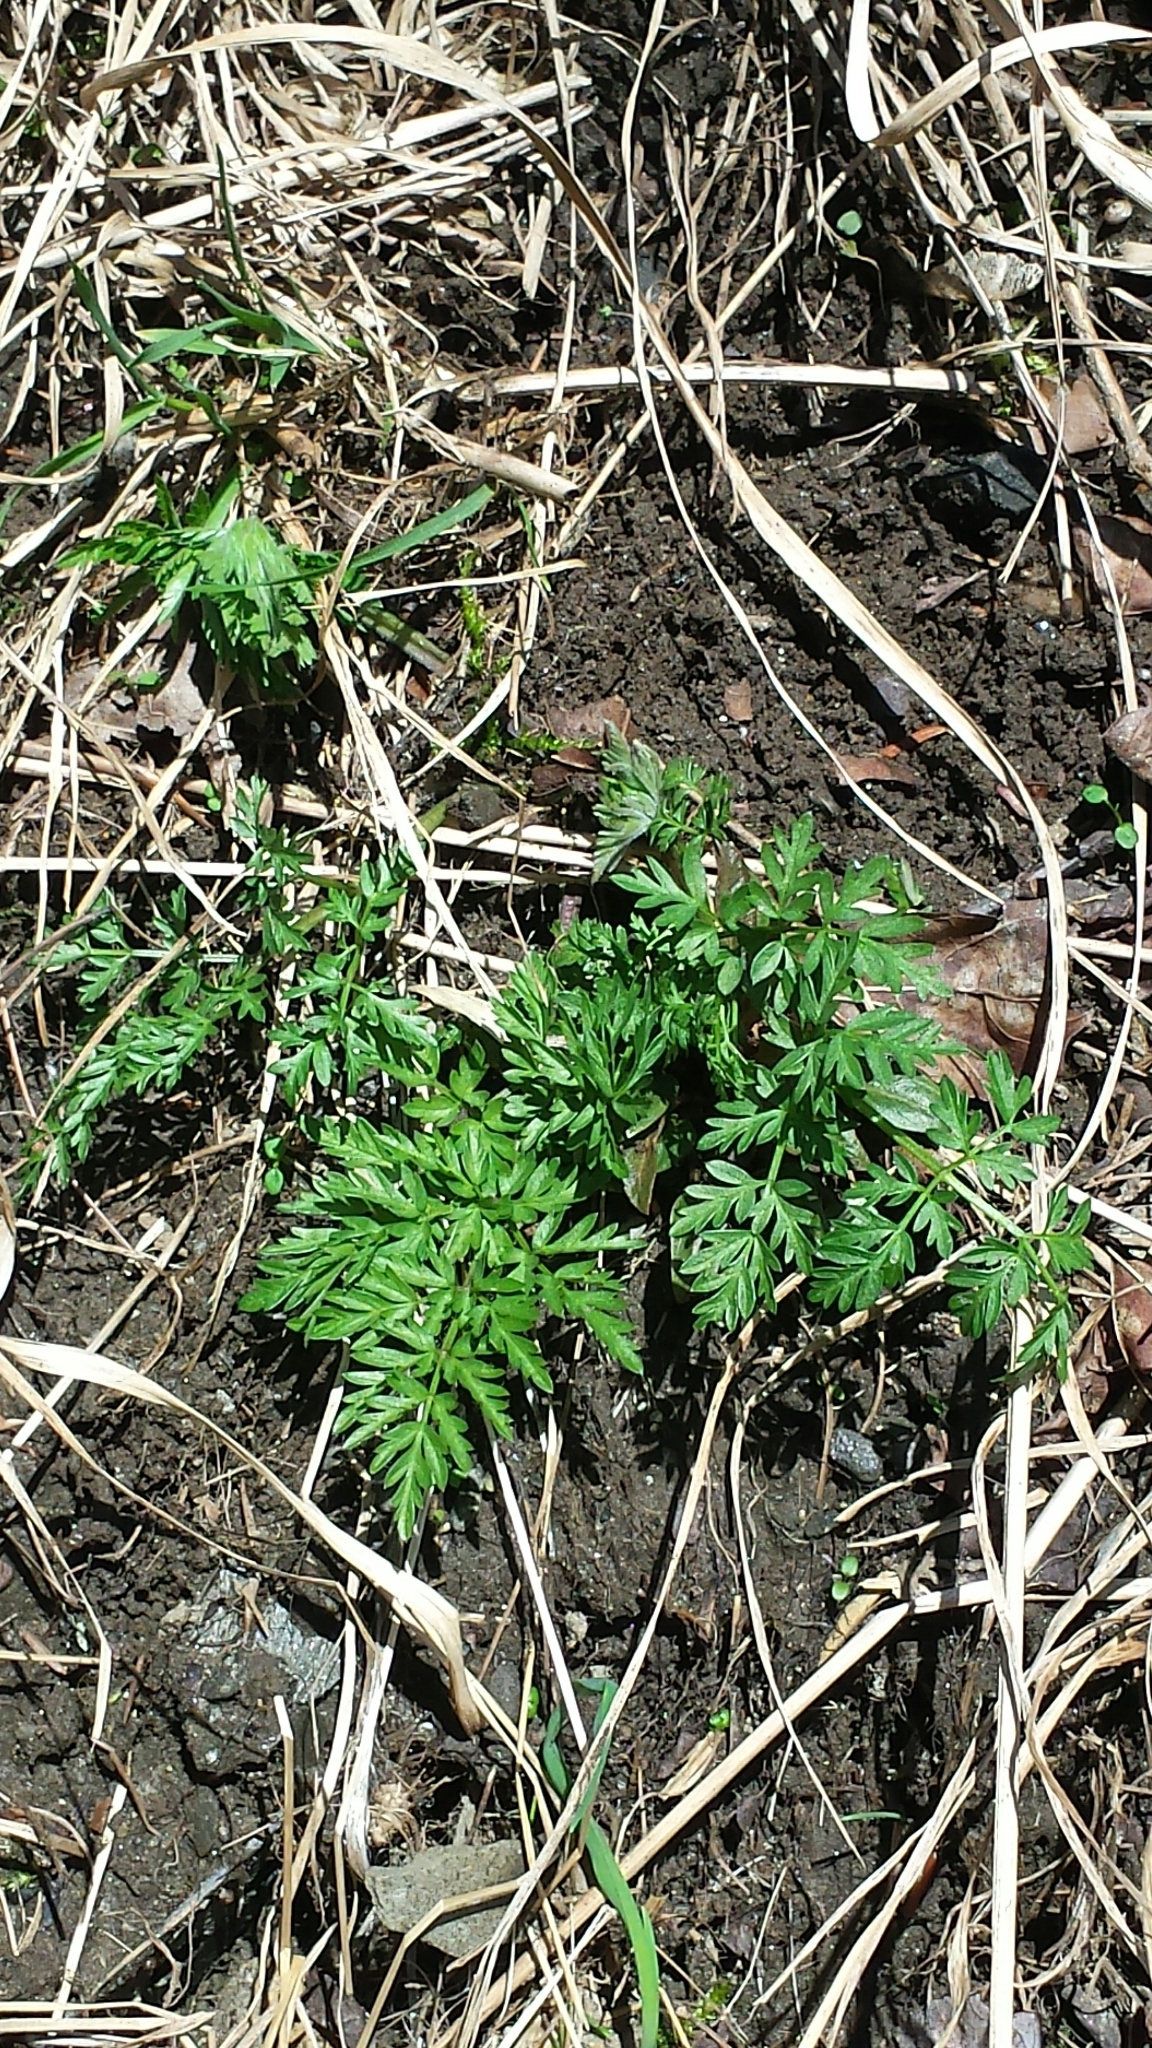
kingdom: Plantae
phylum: Tracheophyta
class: Magnoliopsida
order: Apiales
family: Apiaceae
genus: Anthriscus
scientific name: Anthriscus sylvestris
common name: Cow parsley
